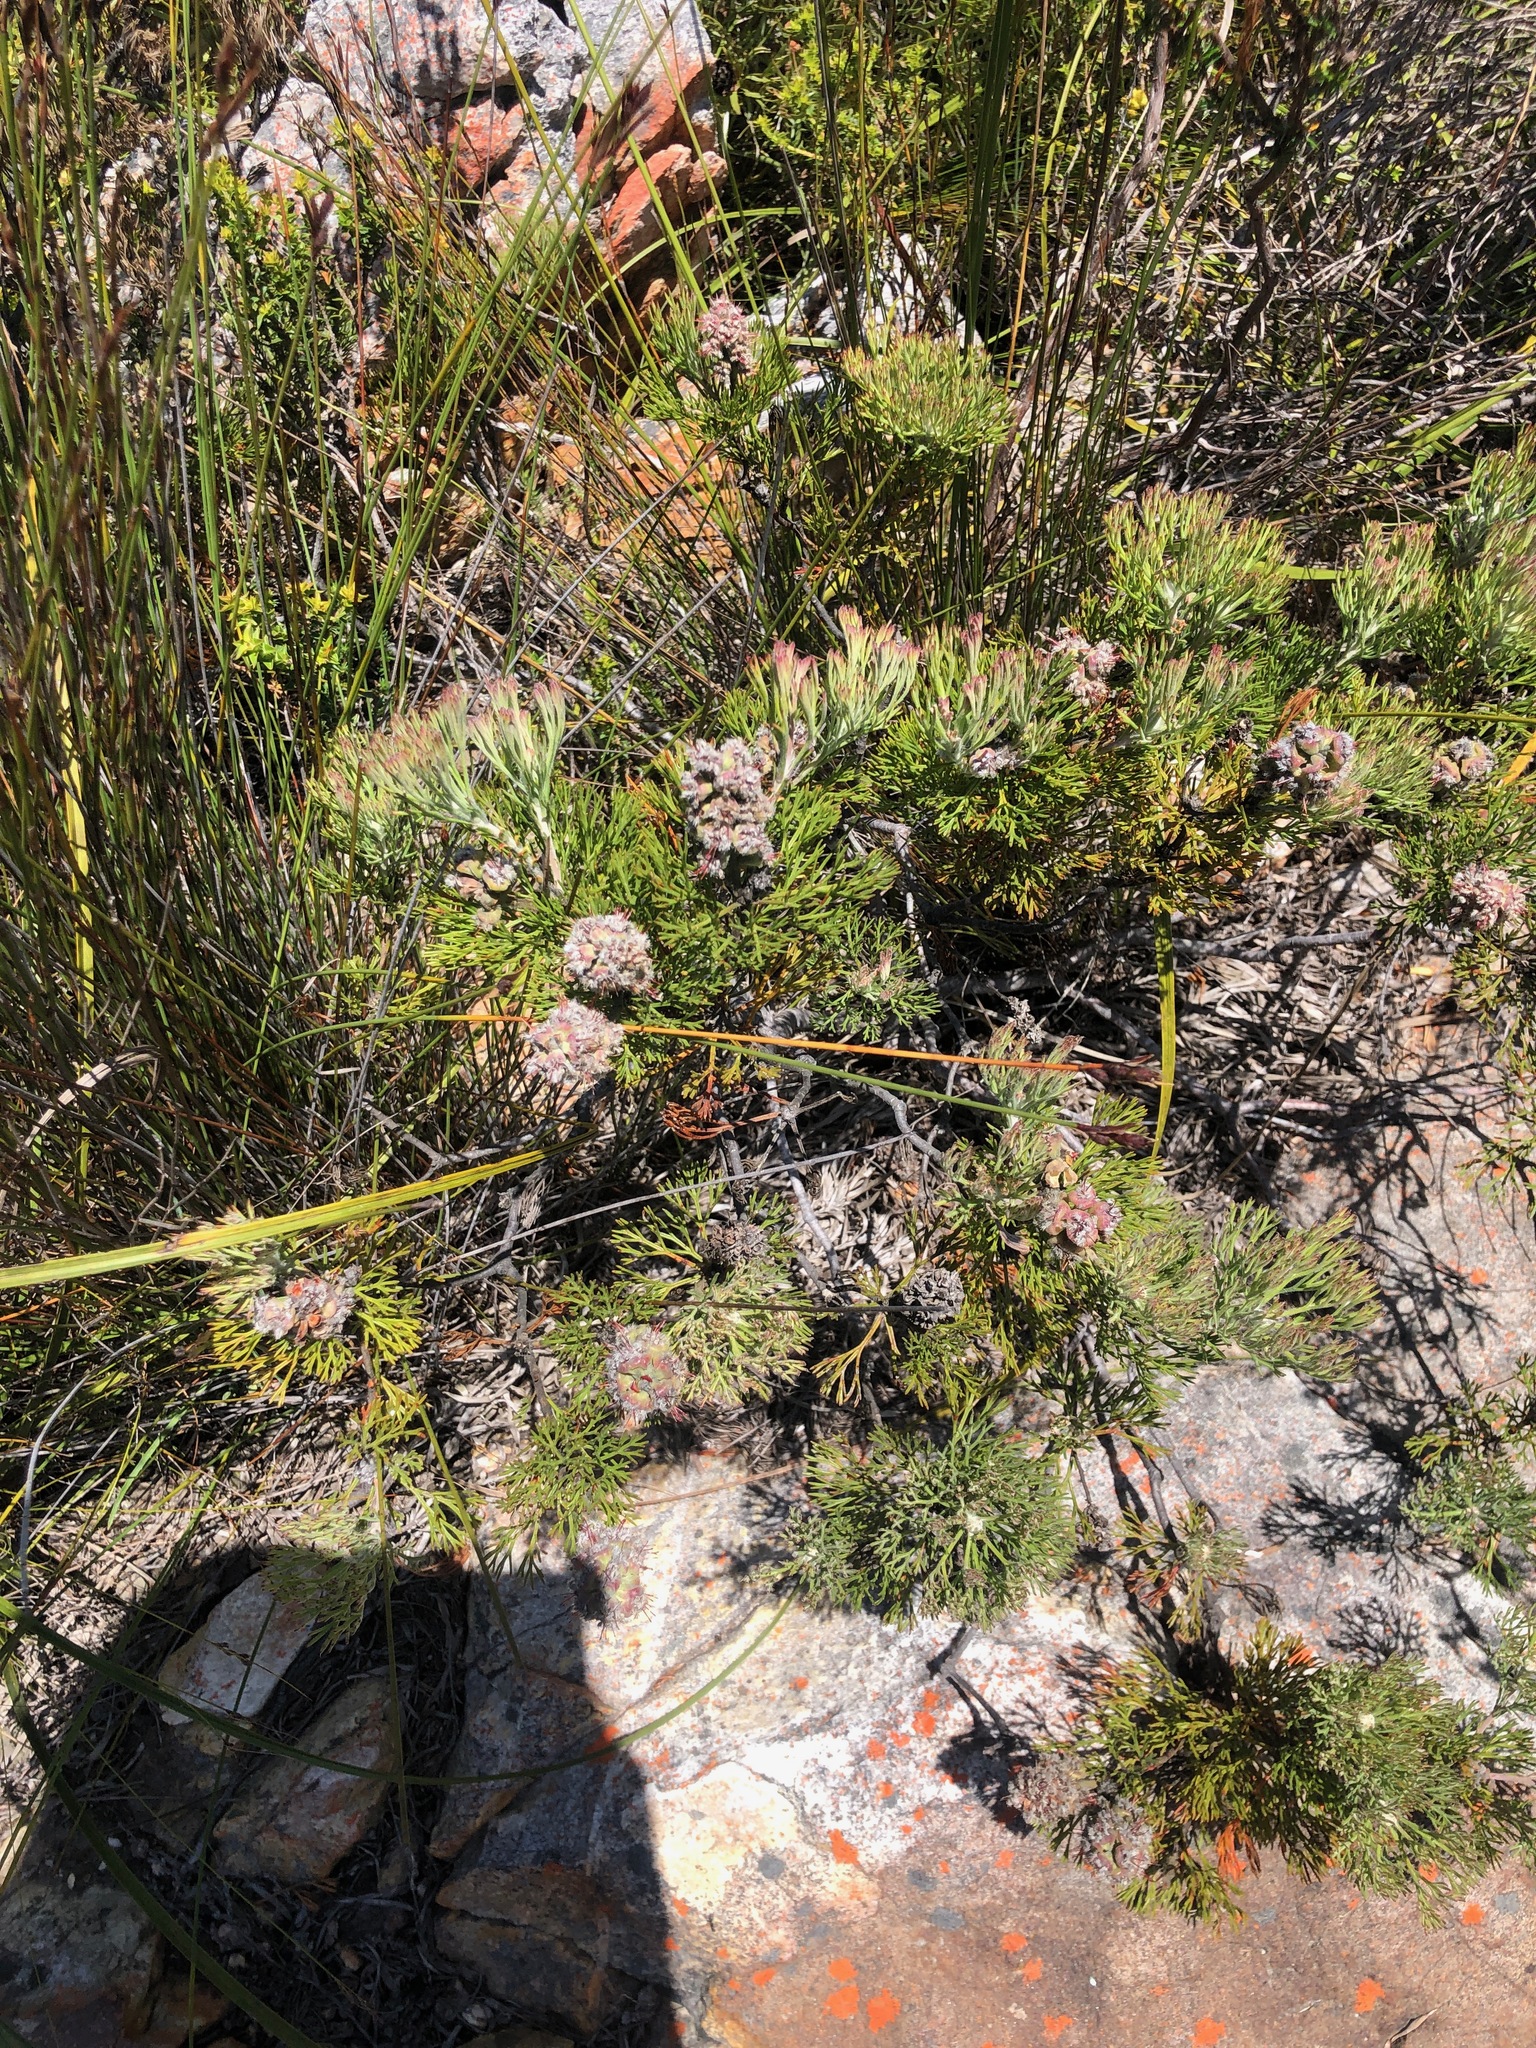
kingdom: Plantae
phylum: Tracheophyta
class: Magnoliopsida
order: Proteales
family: Proteaceae
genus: Paranomus
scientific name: Paranomus abrotanifolius
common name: Bredasdorp sceptre
